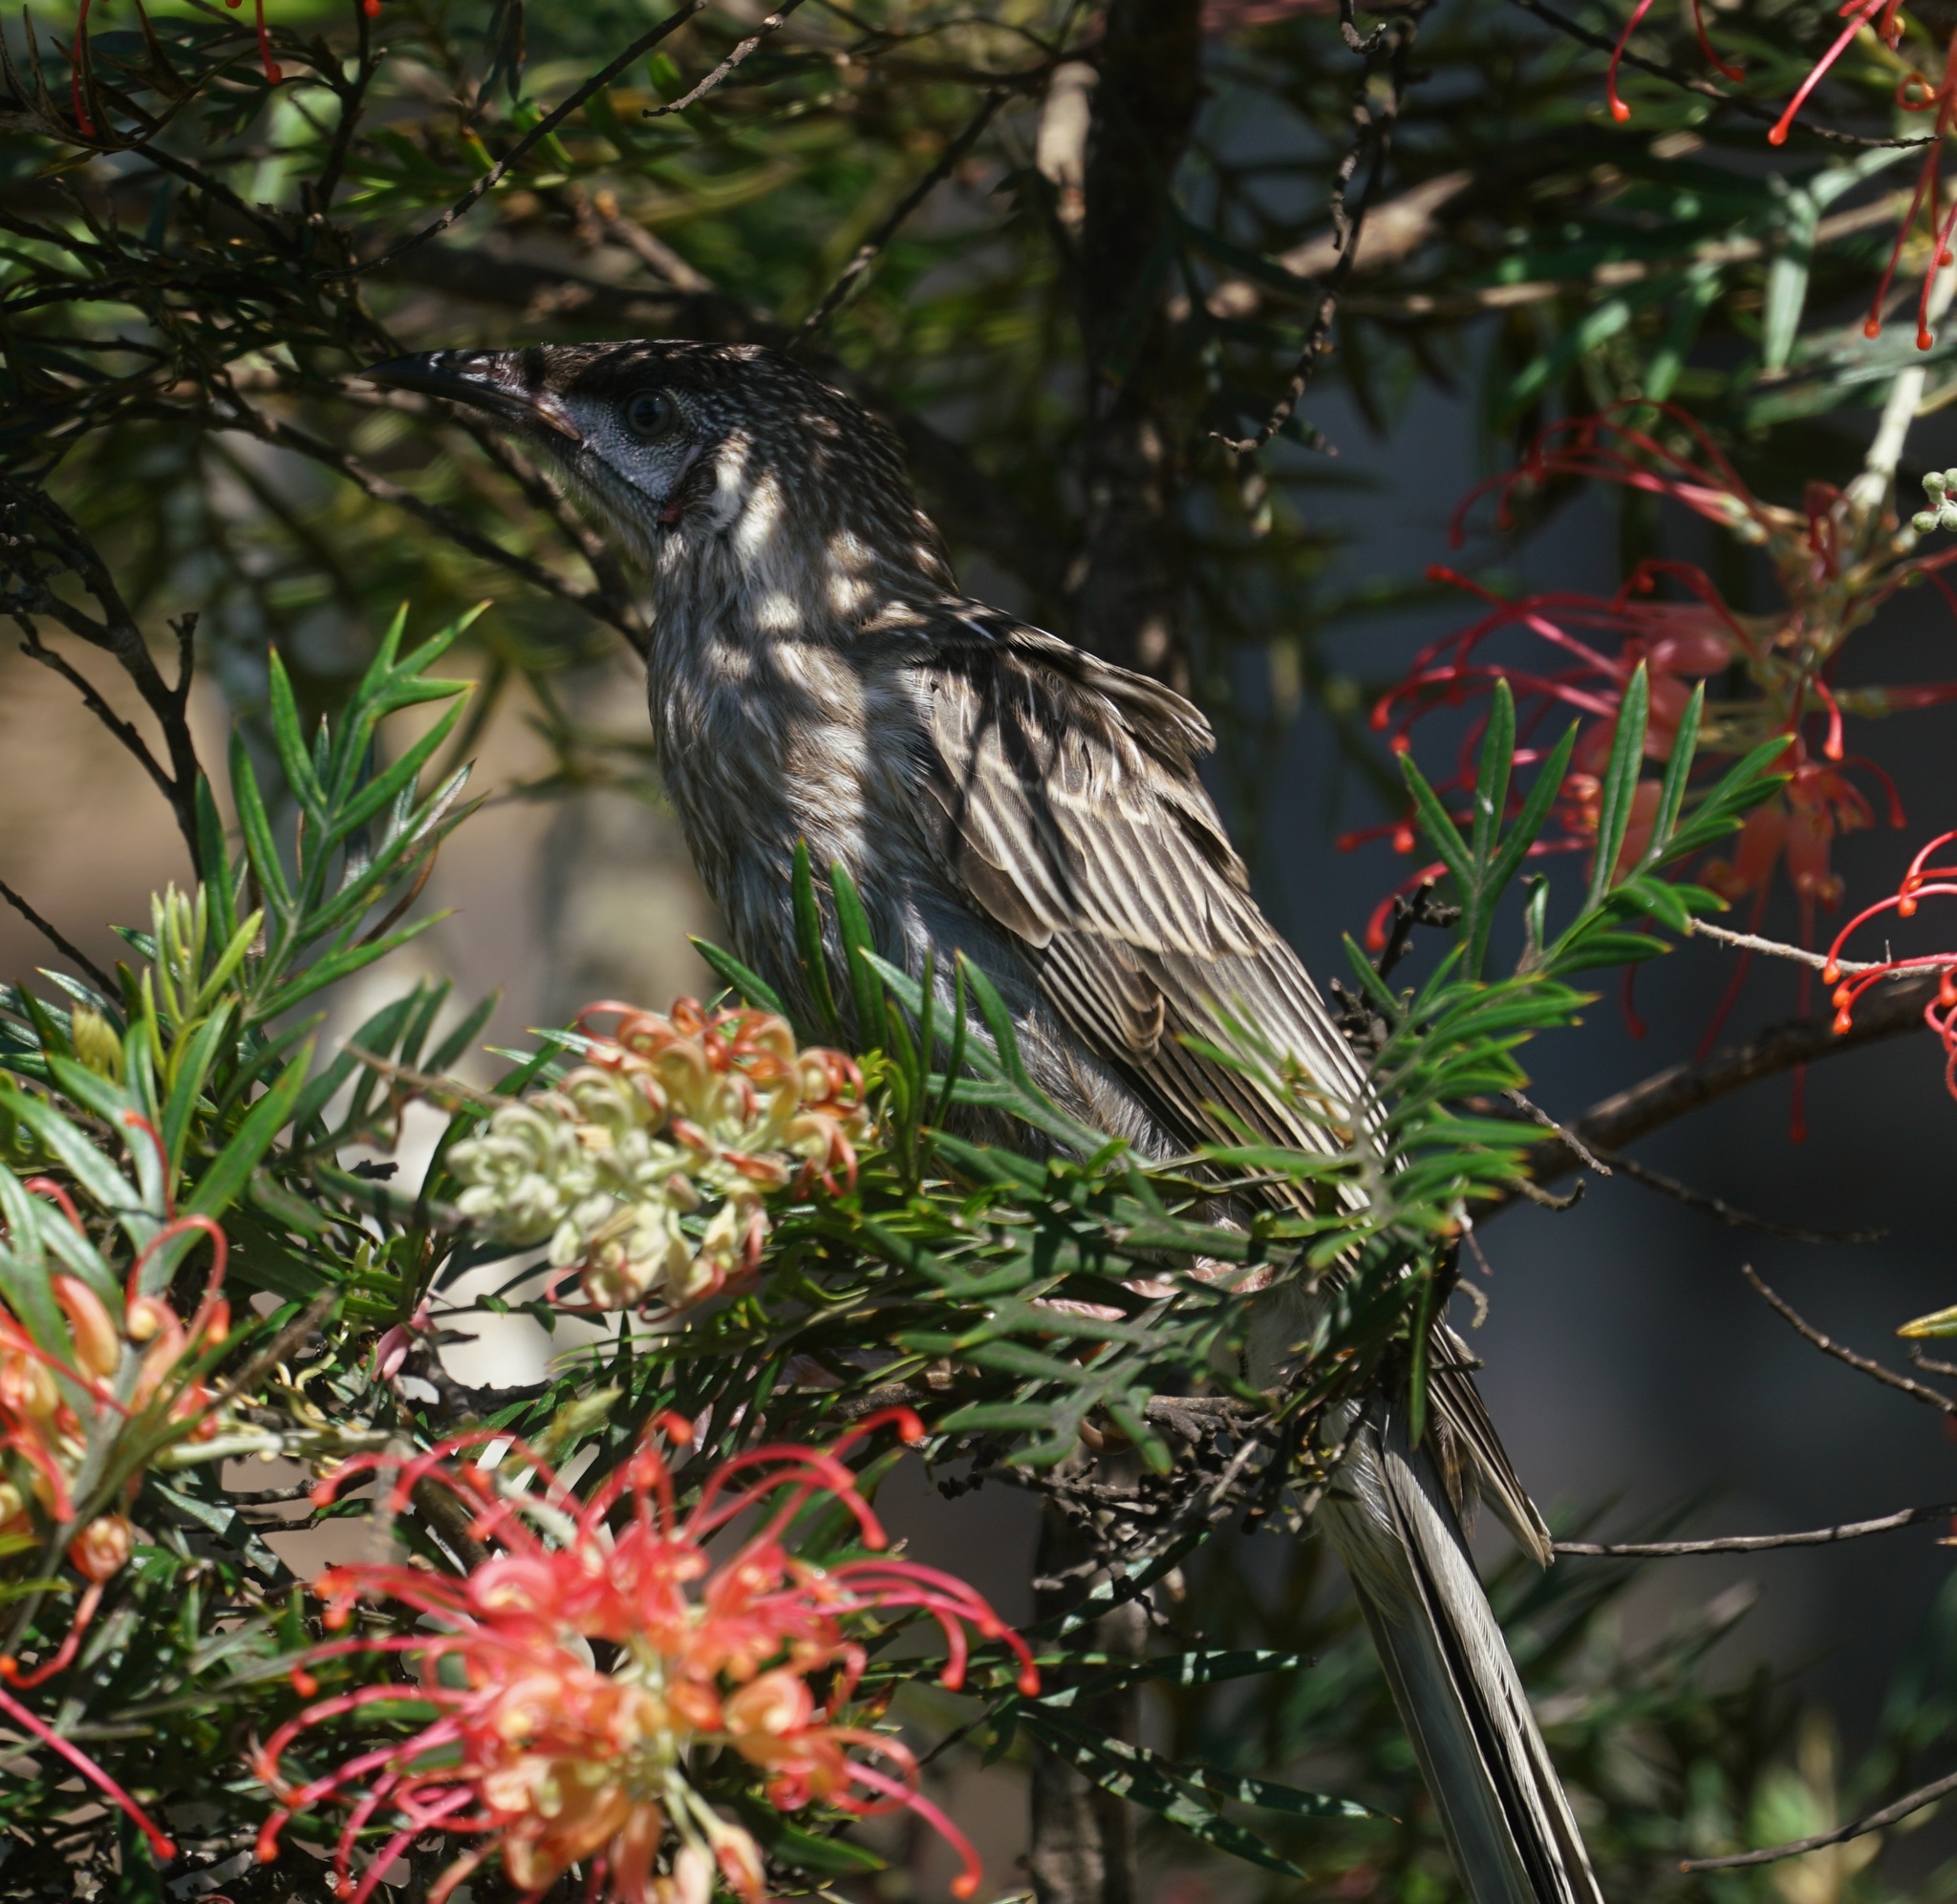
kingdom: Animalia
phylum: Chordata
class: Aves
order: Passeriformes
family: Meliphagidae
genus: Anthochaera
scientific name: Anthochaera carunculata
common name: Red wattlebird
